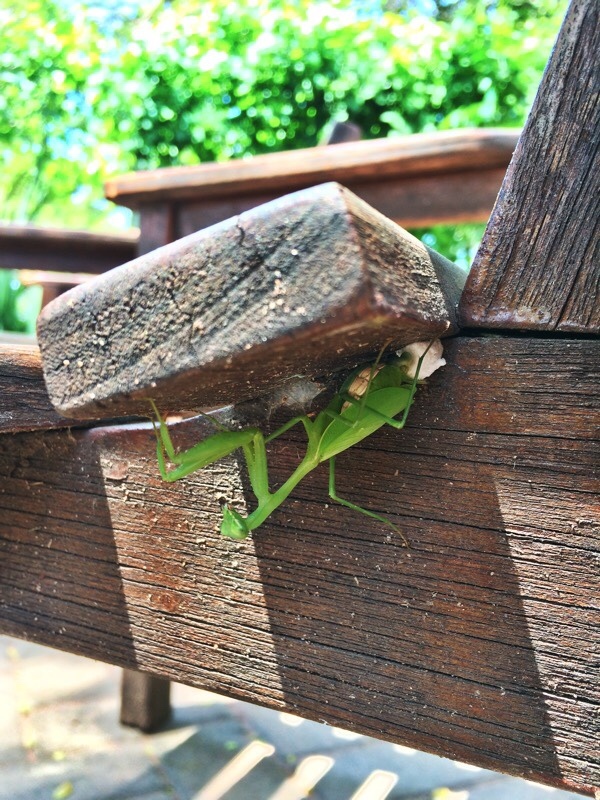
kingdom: Animalia
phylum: Arthropoda
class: Insecta
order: Mantodea
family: Miomantidae
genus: Miomantis
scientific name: Miomantis caffra
